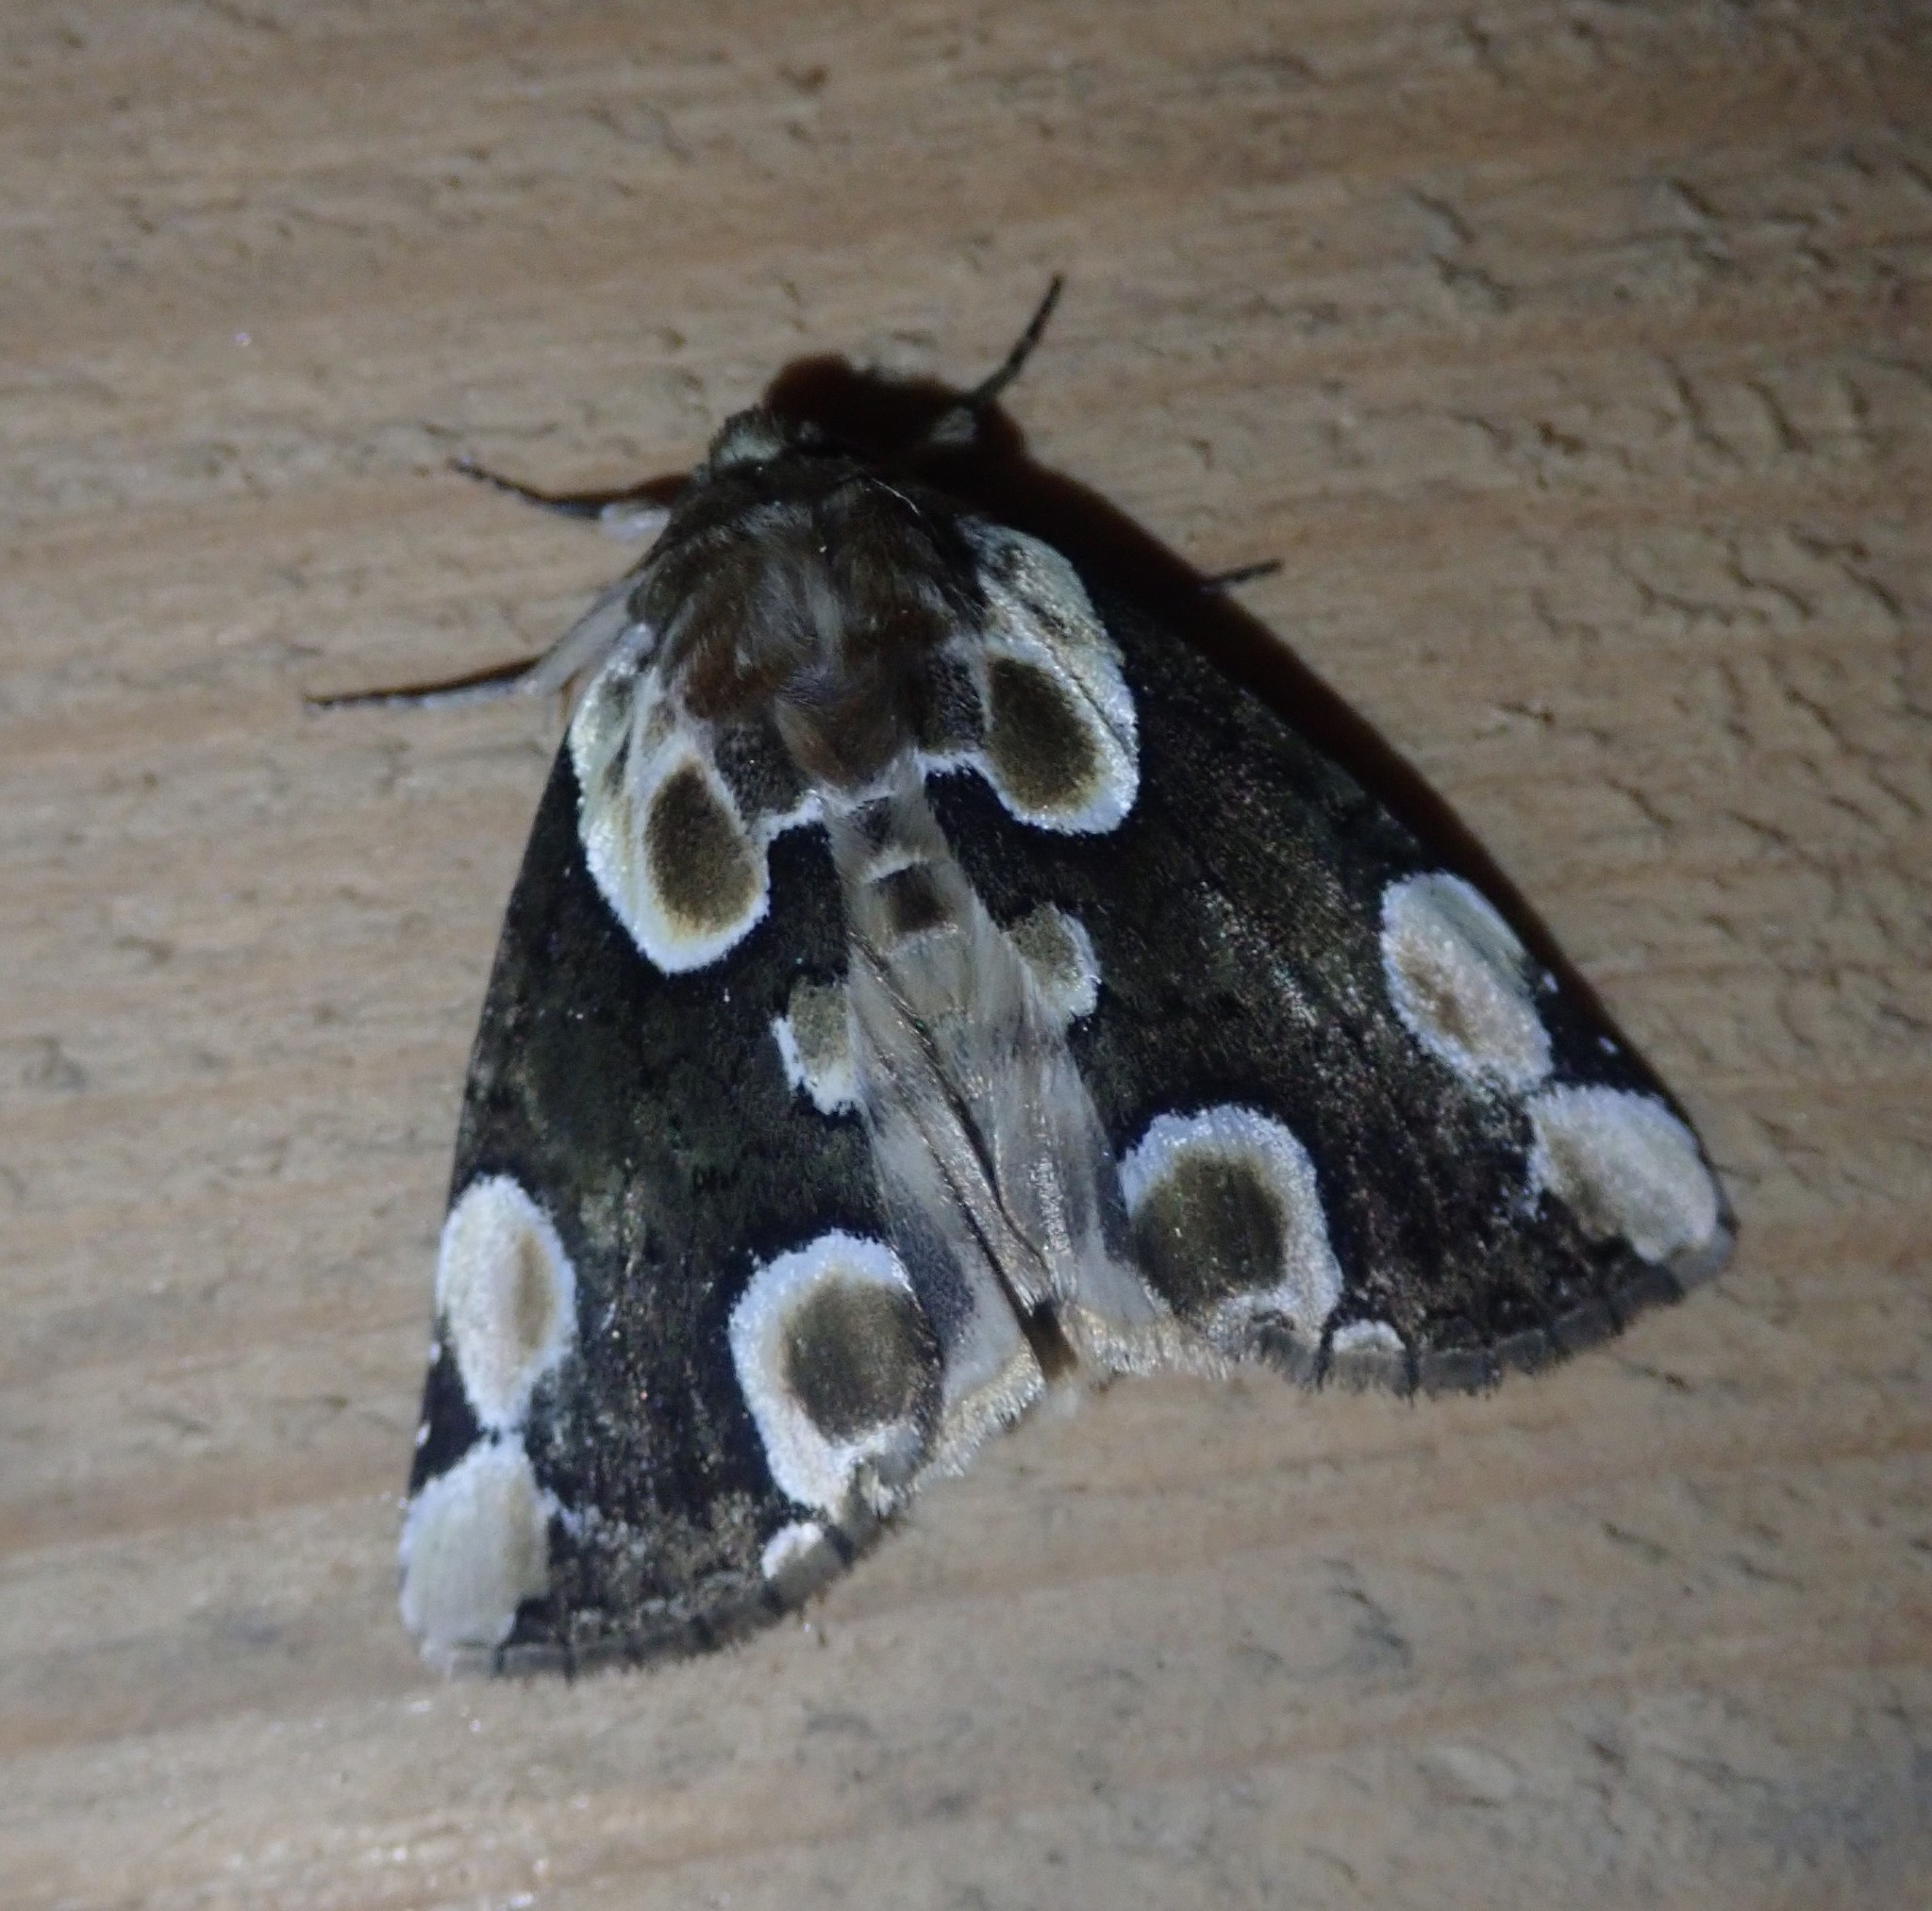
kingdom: Animalia
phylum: Arthropoda
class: Insecta
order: Lepidoptera
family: Drepanidae
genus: Thyatira
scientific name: Thyatira batis
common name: Peach blossom
